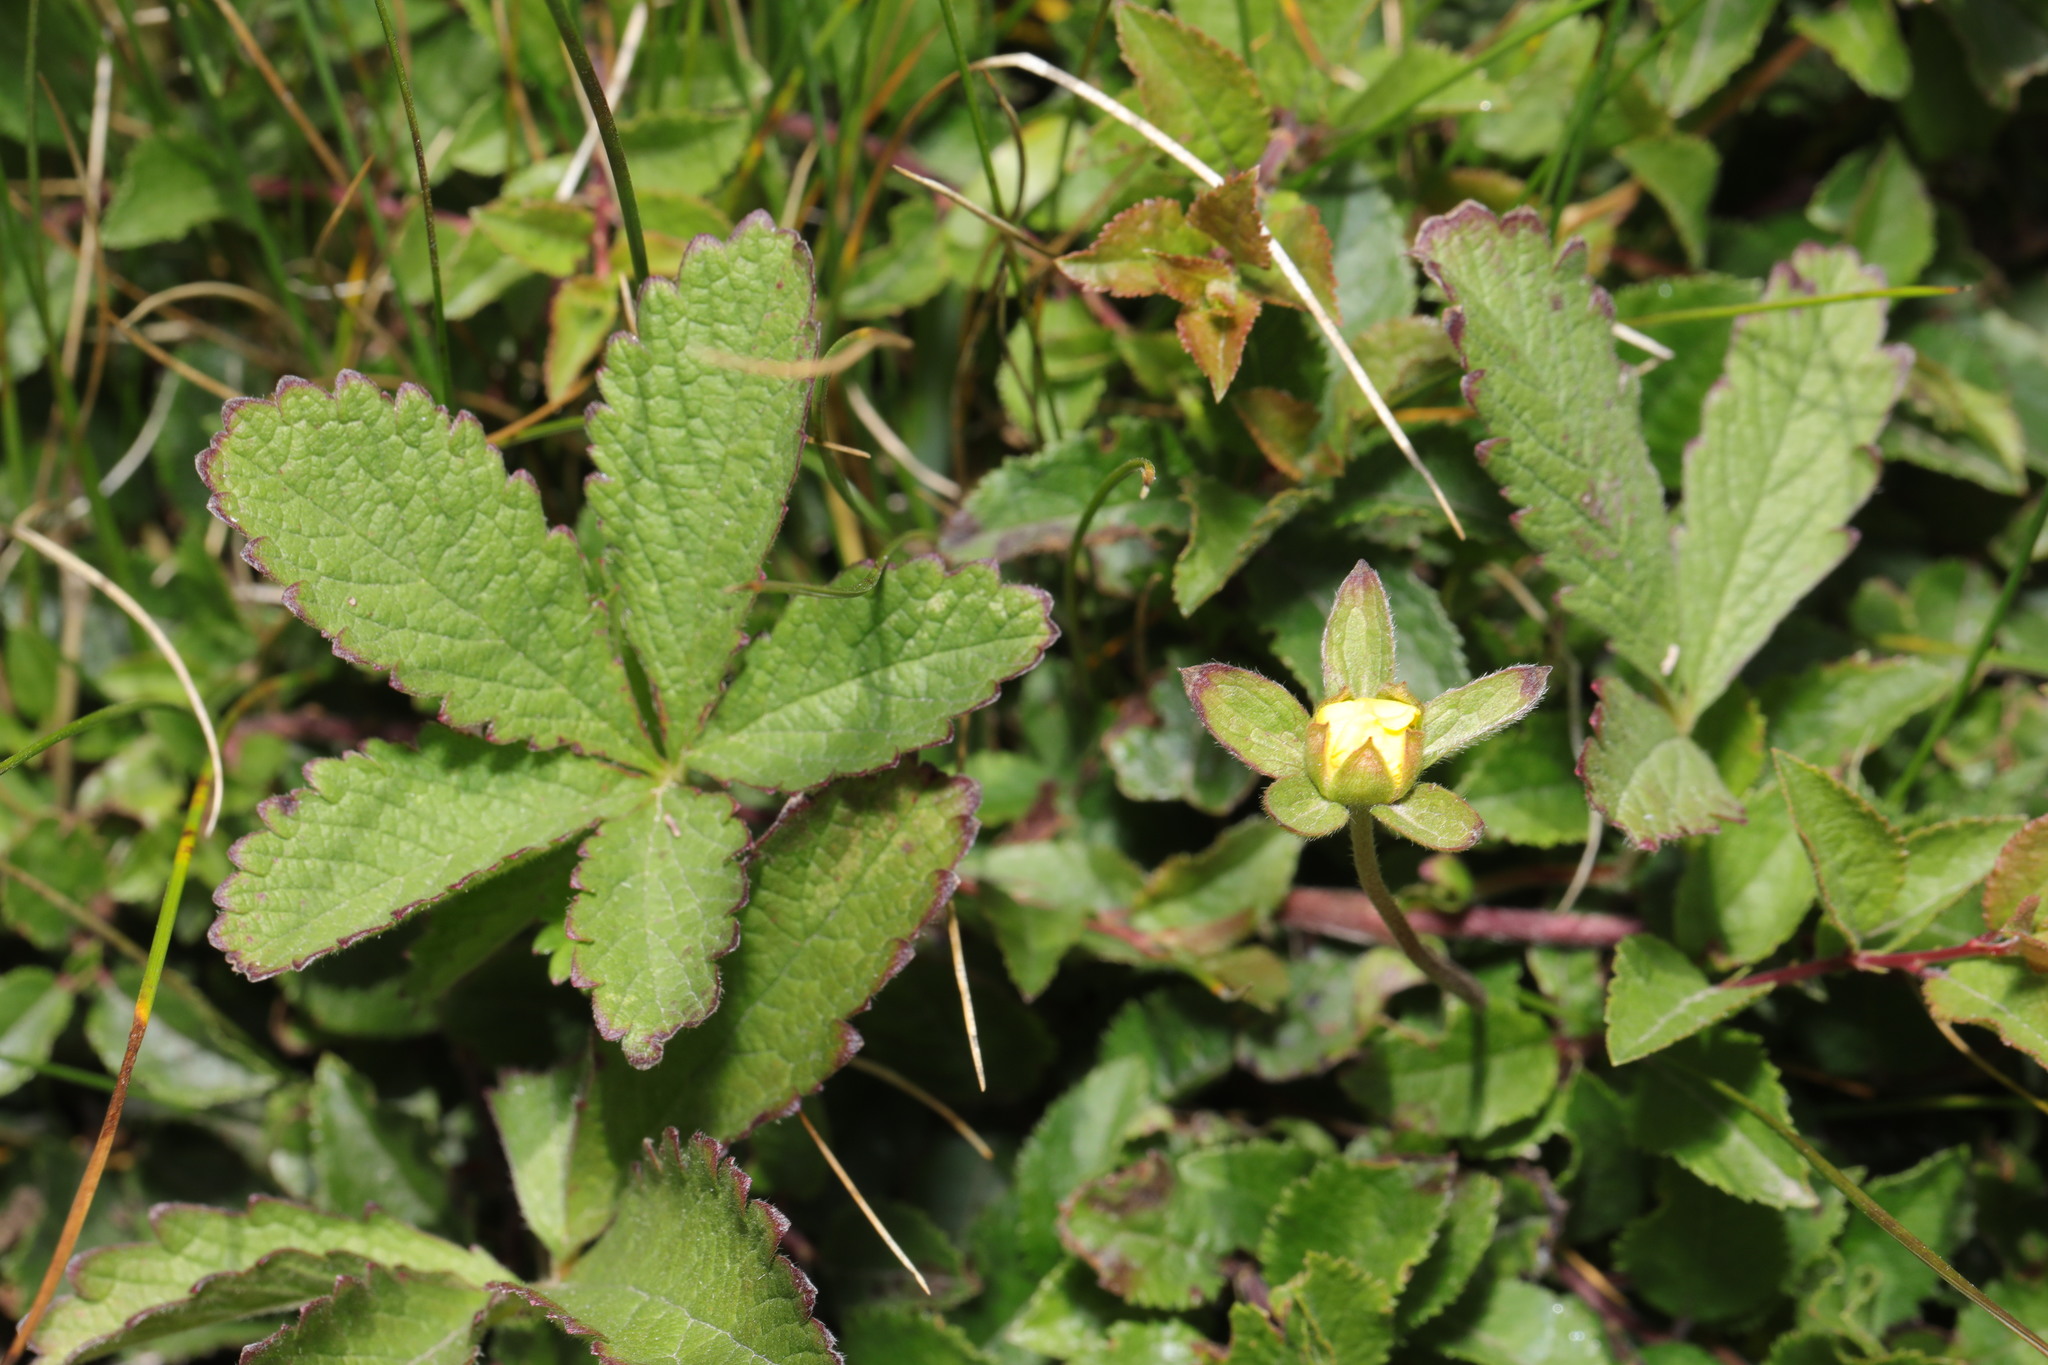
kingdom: Plantae
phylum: Tracheophyta
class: Magnoliopsida
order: Rosales
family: Rosaceae
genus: Potentilla
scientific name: Potentilla reptans
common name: Creeping cinquefoil
